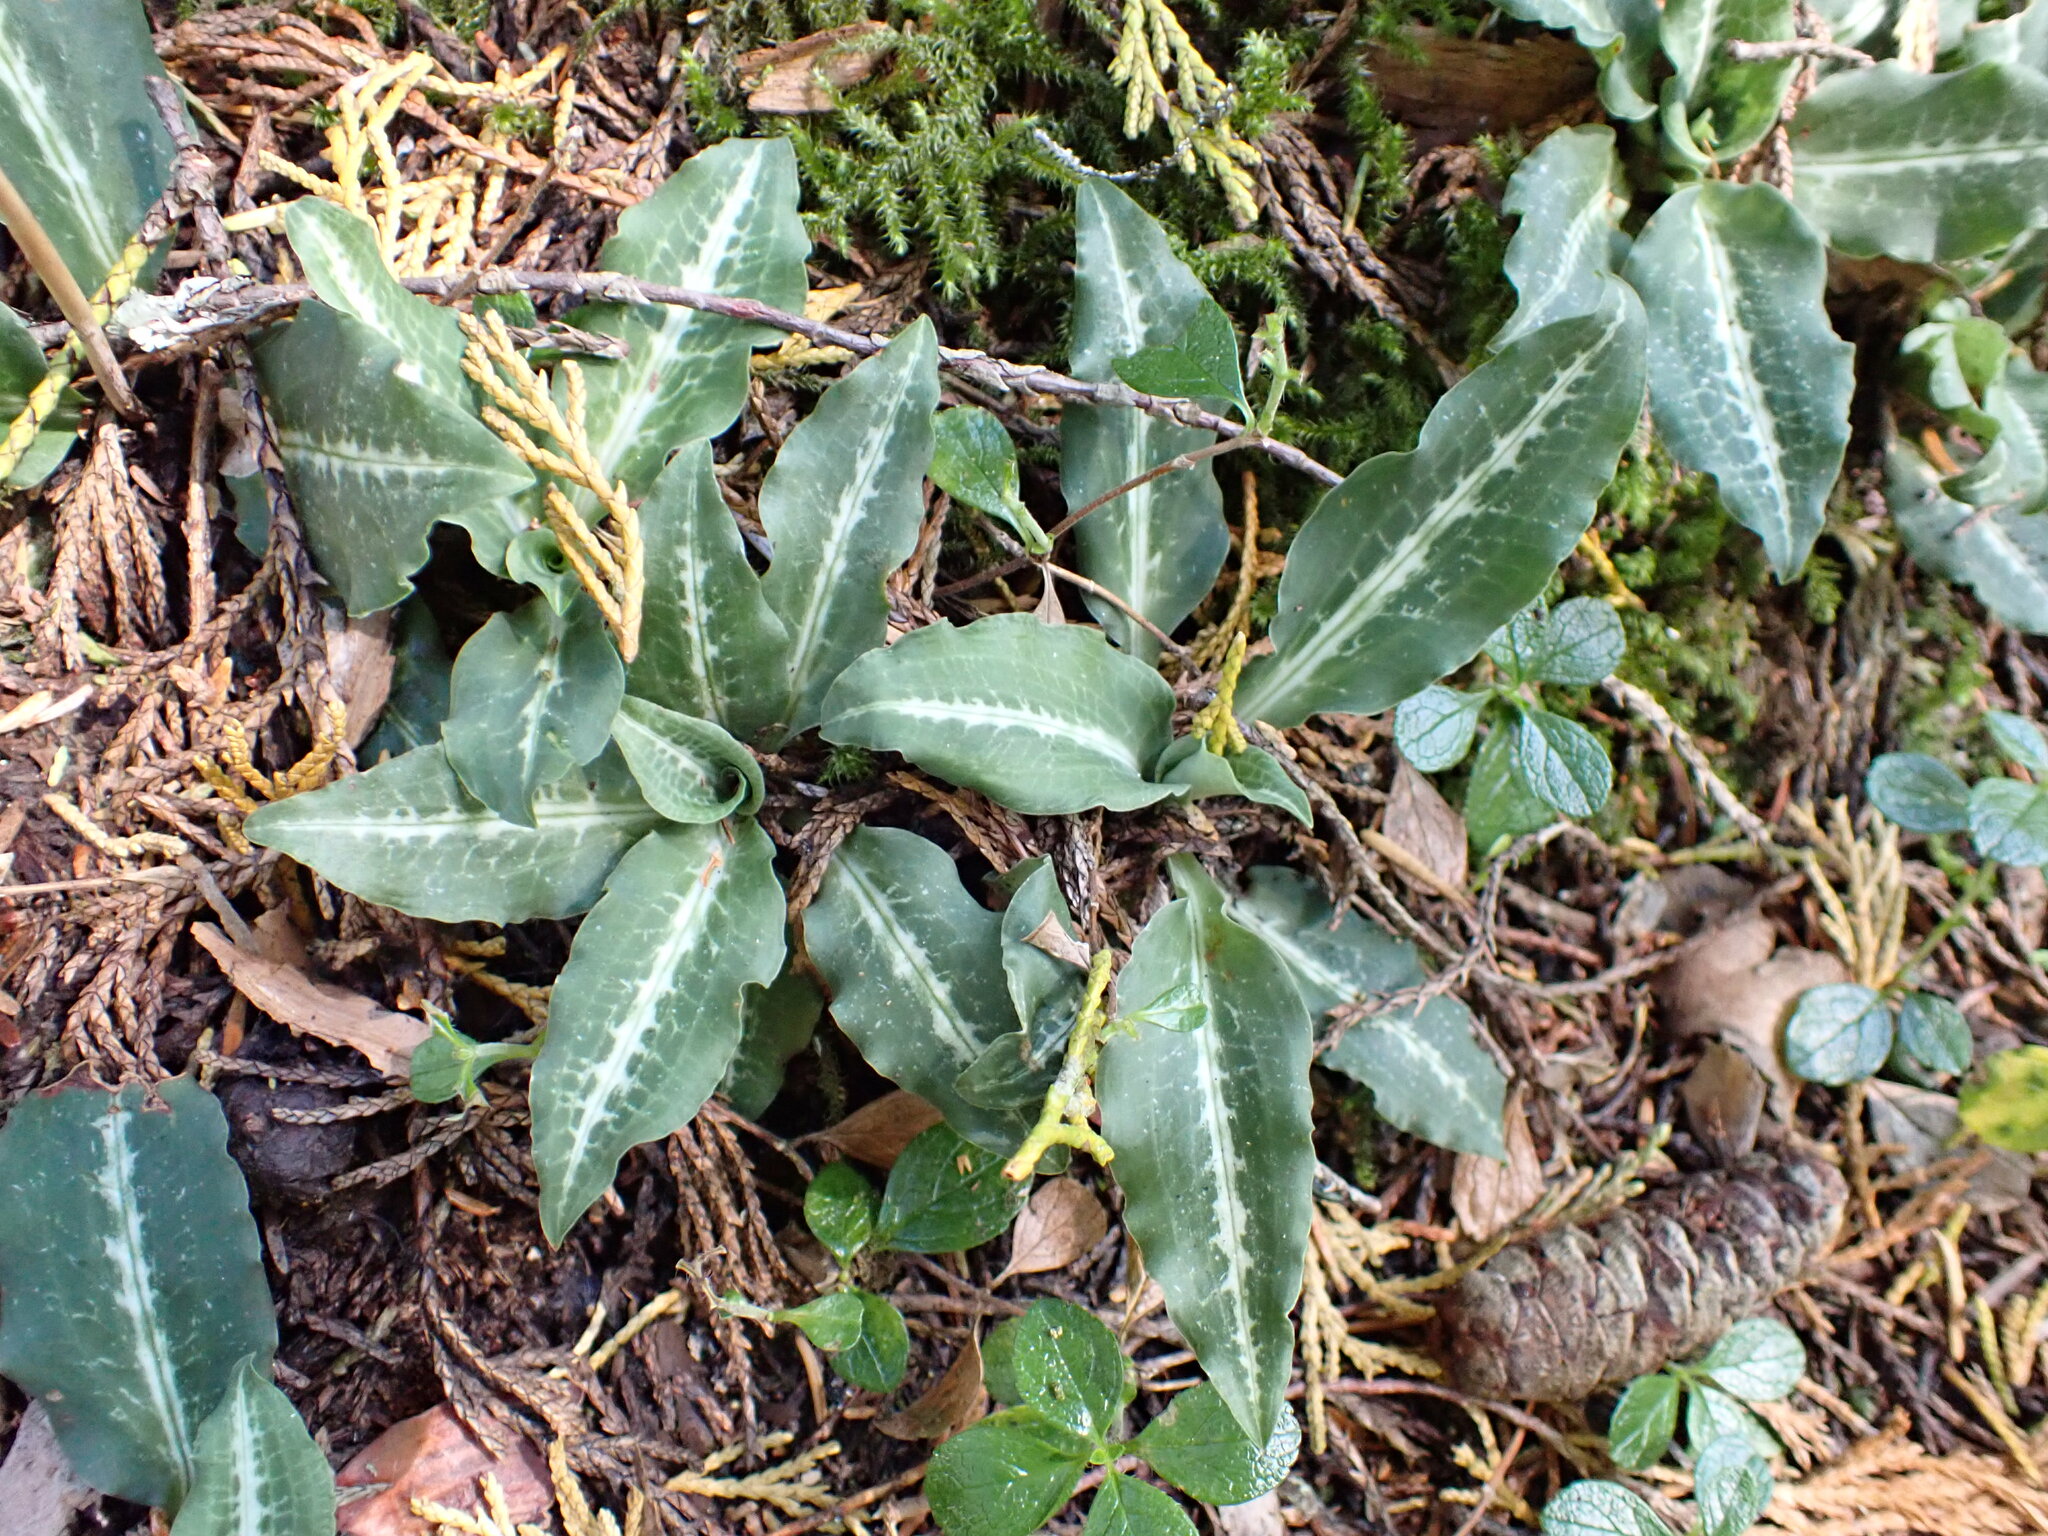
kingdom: Plantae
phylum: Tracheophyta
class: Liliopsida
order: Asparagales
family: Orchidaceae
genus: Goodyera
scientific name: Goodyera oblongifolia
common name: Giant rattlesnake-plantain
